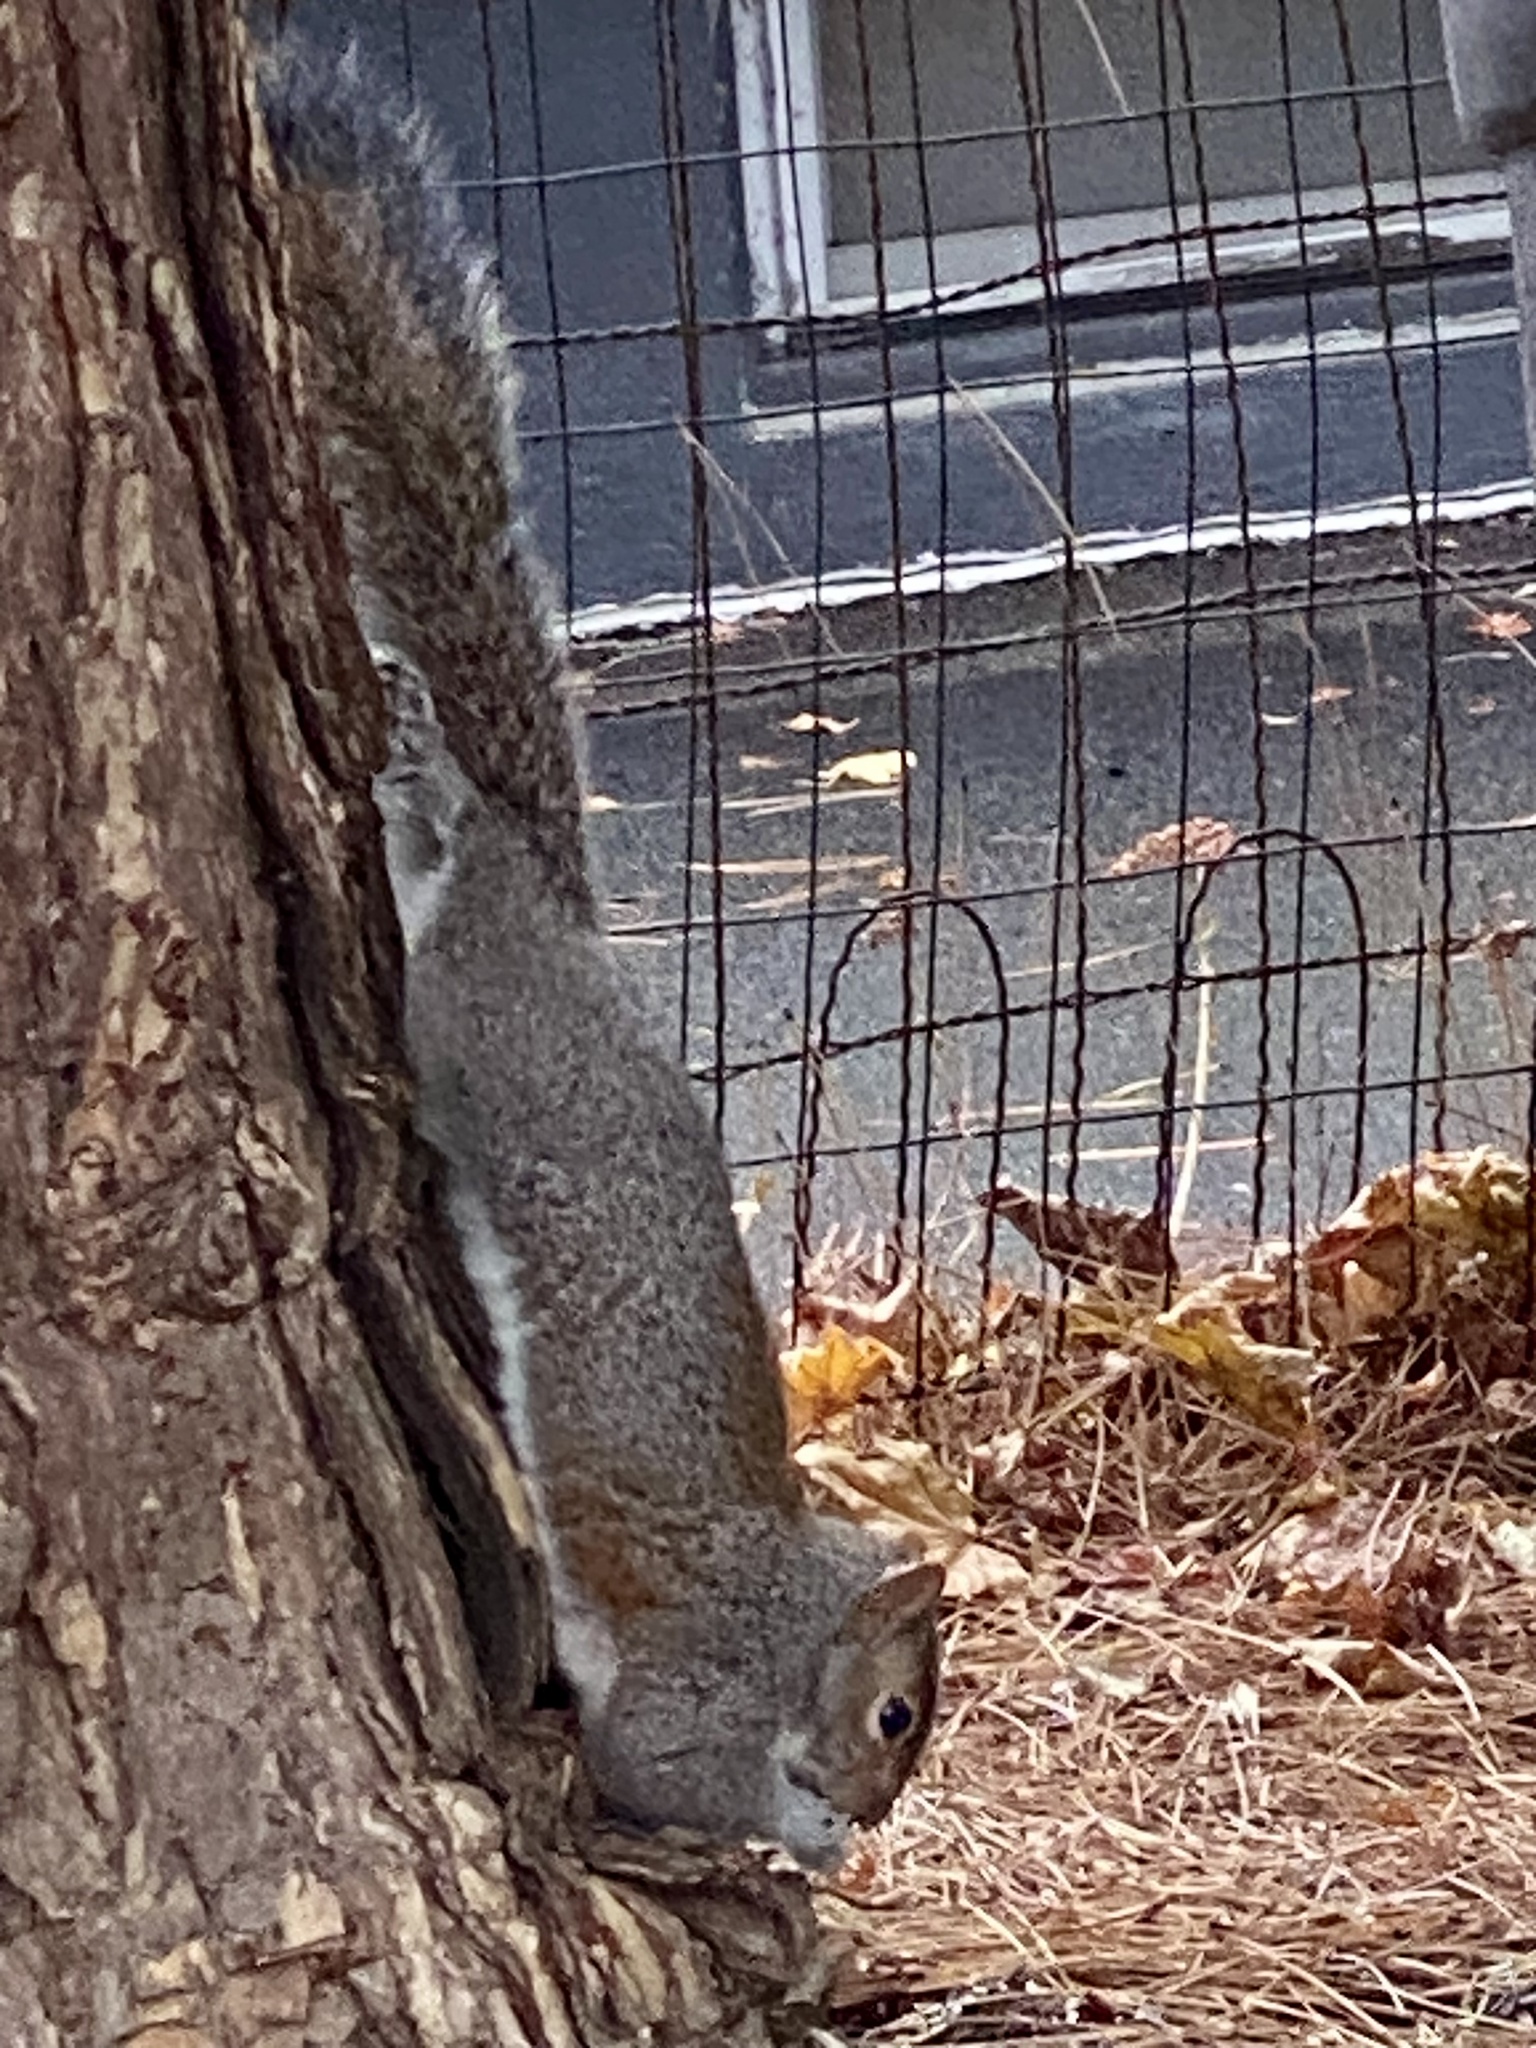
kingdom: Animalia
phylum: Chordata
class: Mammalia
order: Rodentia
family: Sciuridae
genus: Sciurus
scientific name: Sciurus carolinensis
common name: Eastern gray squirrel
